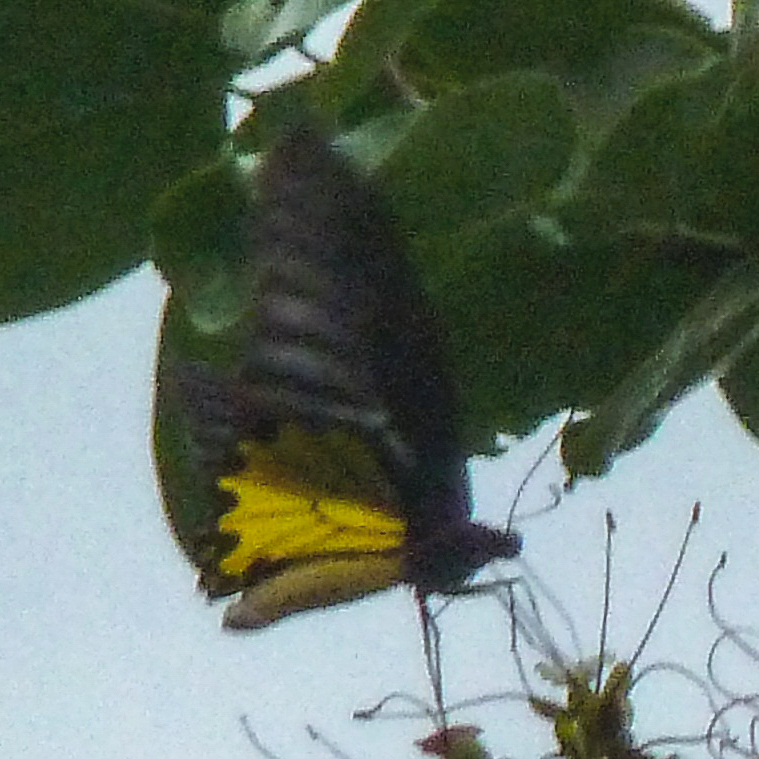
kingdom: Animalia
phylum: Arthropoda
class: Insecta
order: Lepidoptera
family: Papilionidae
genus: Troides
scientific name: Troides helena
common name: Common birdwing
